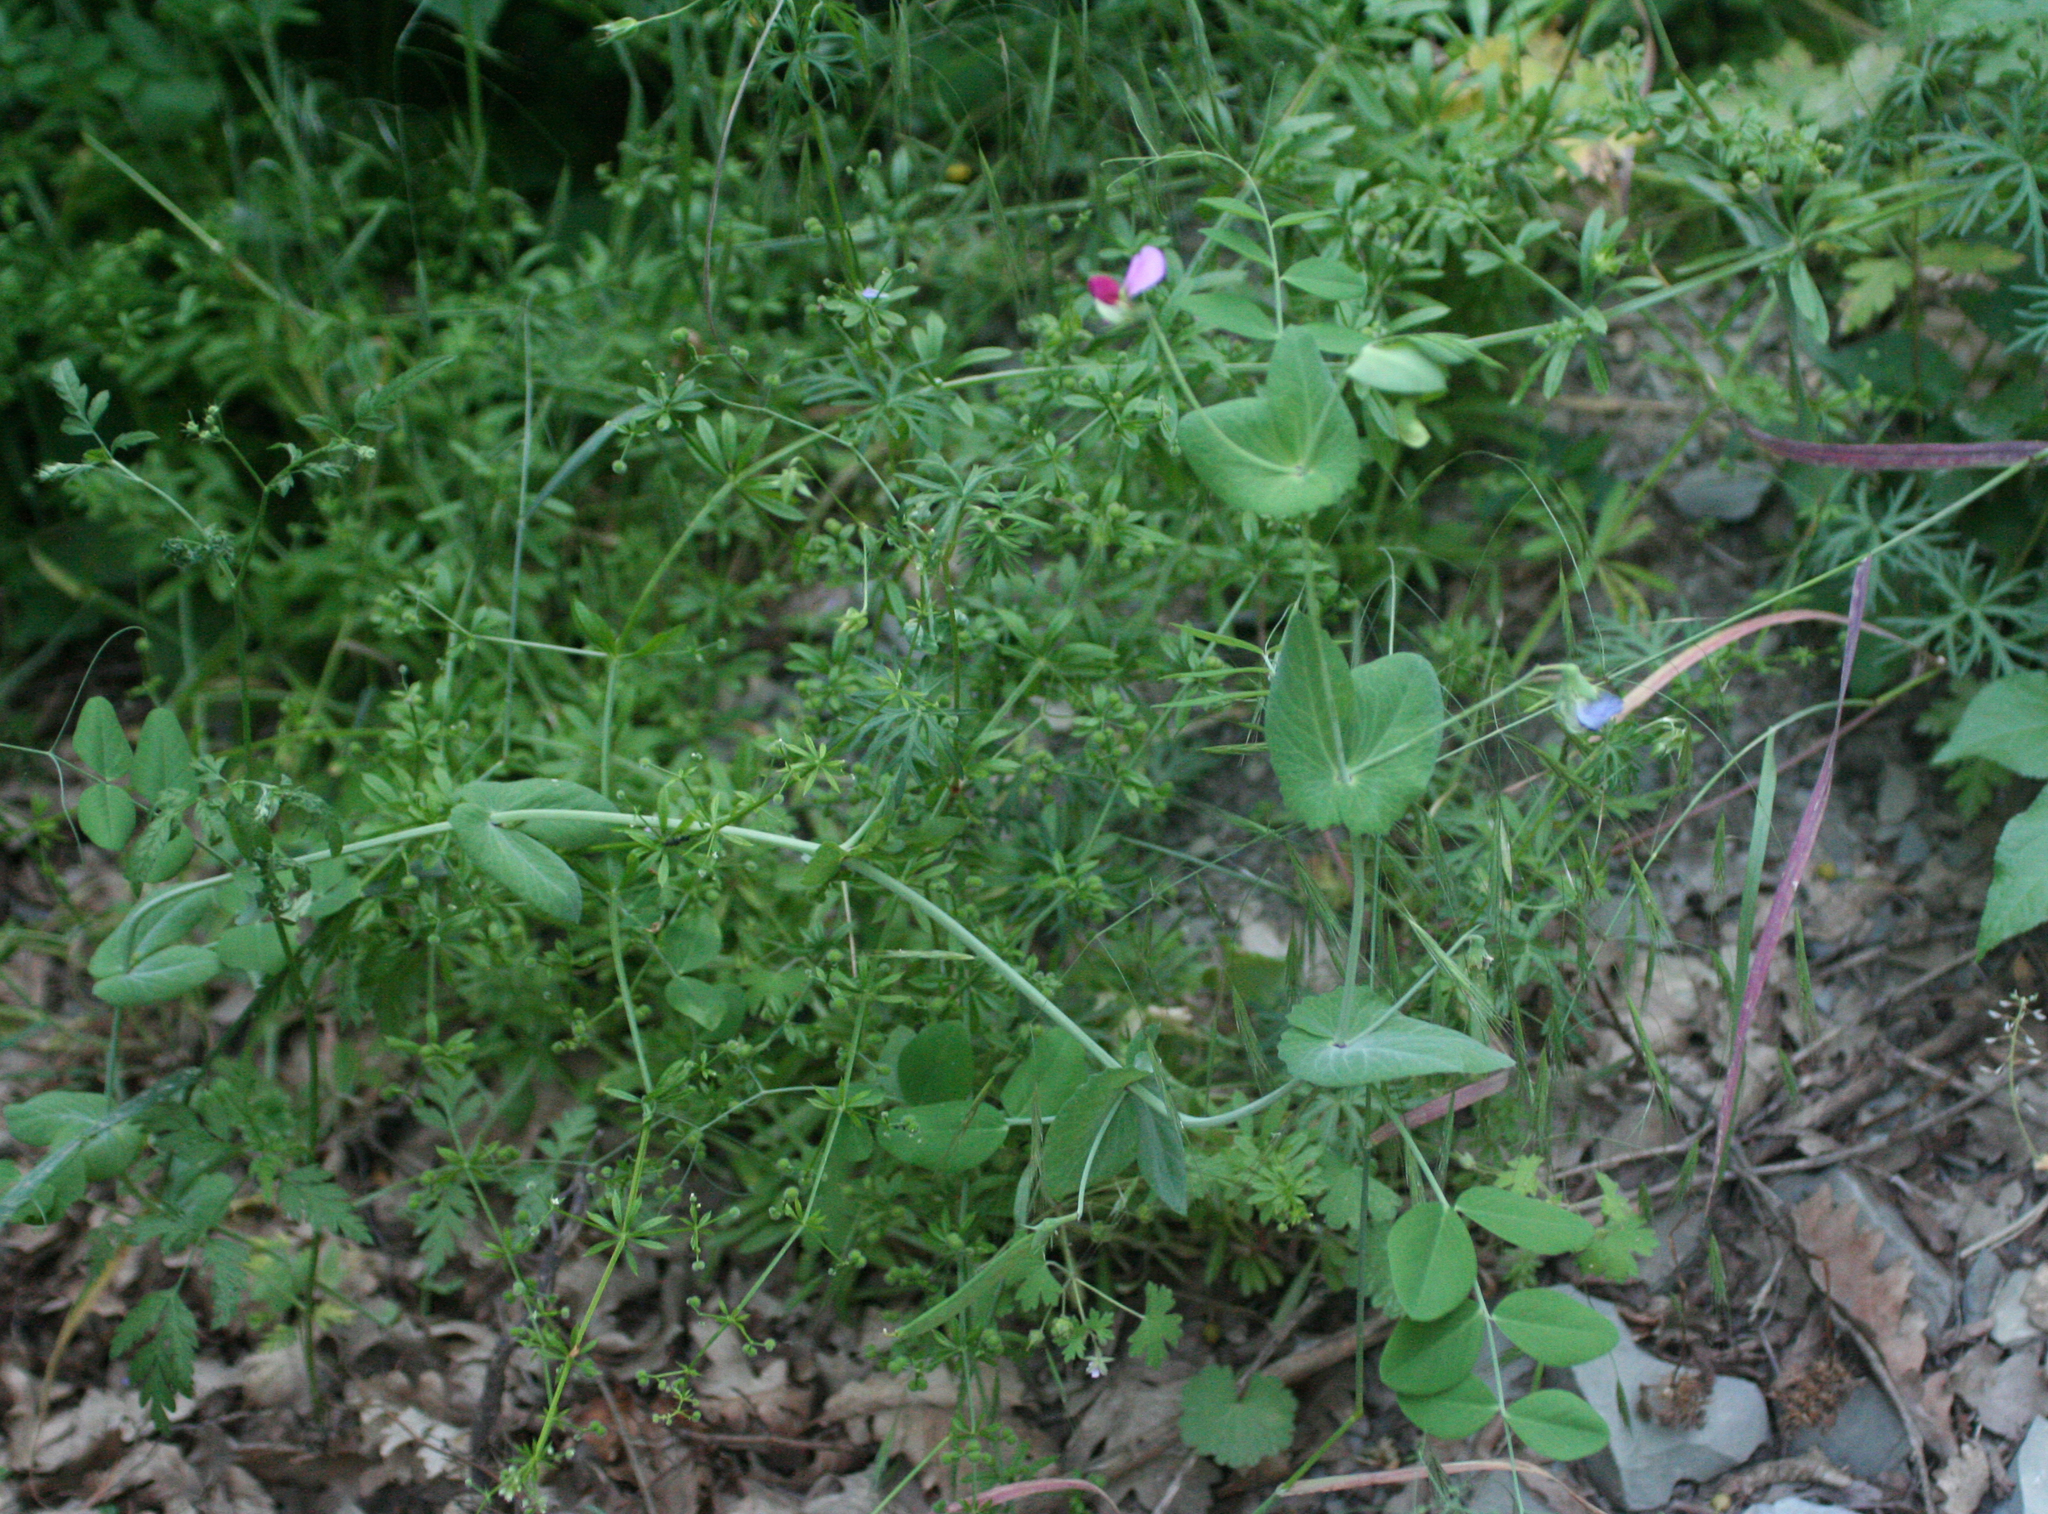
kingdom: Plantae
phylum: Tracheophyta
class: Magnoliopsida
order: Fabales
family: Fabaceae
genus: Lathyrus
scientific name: Lathyrus oleraceus
